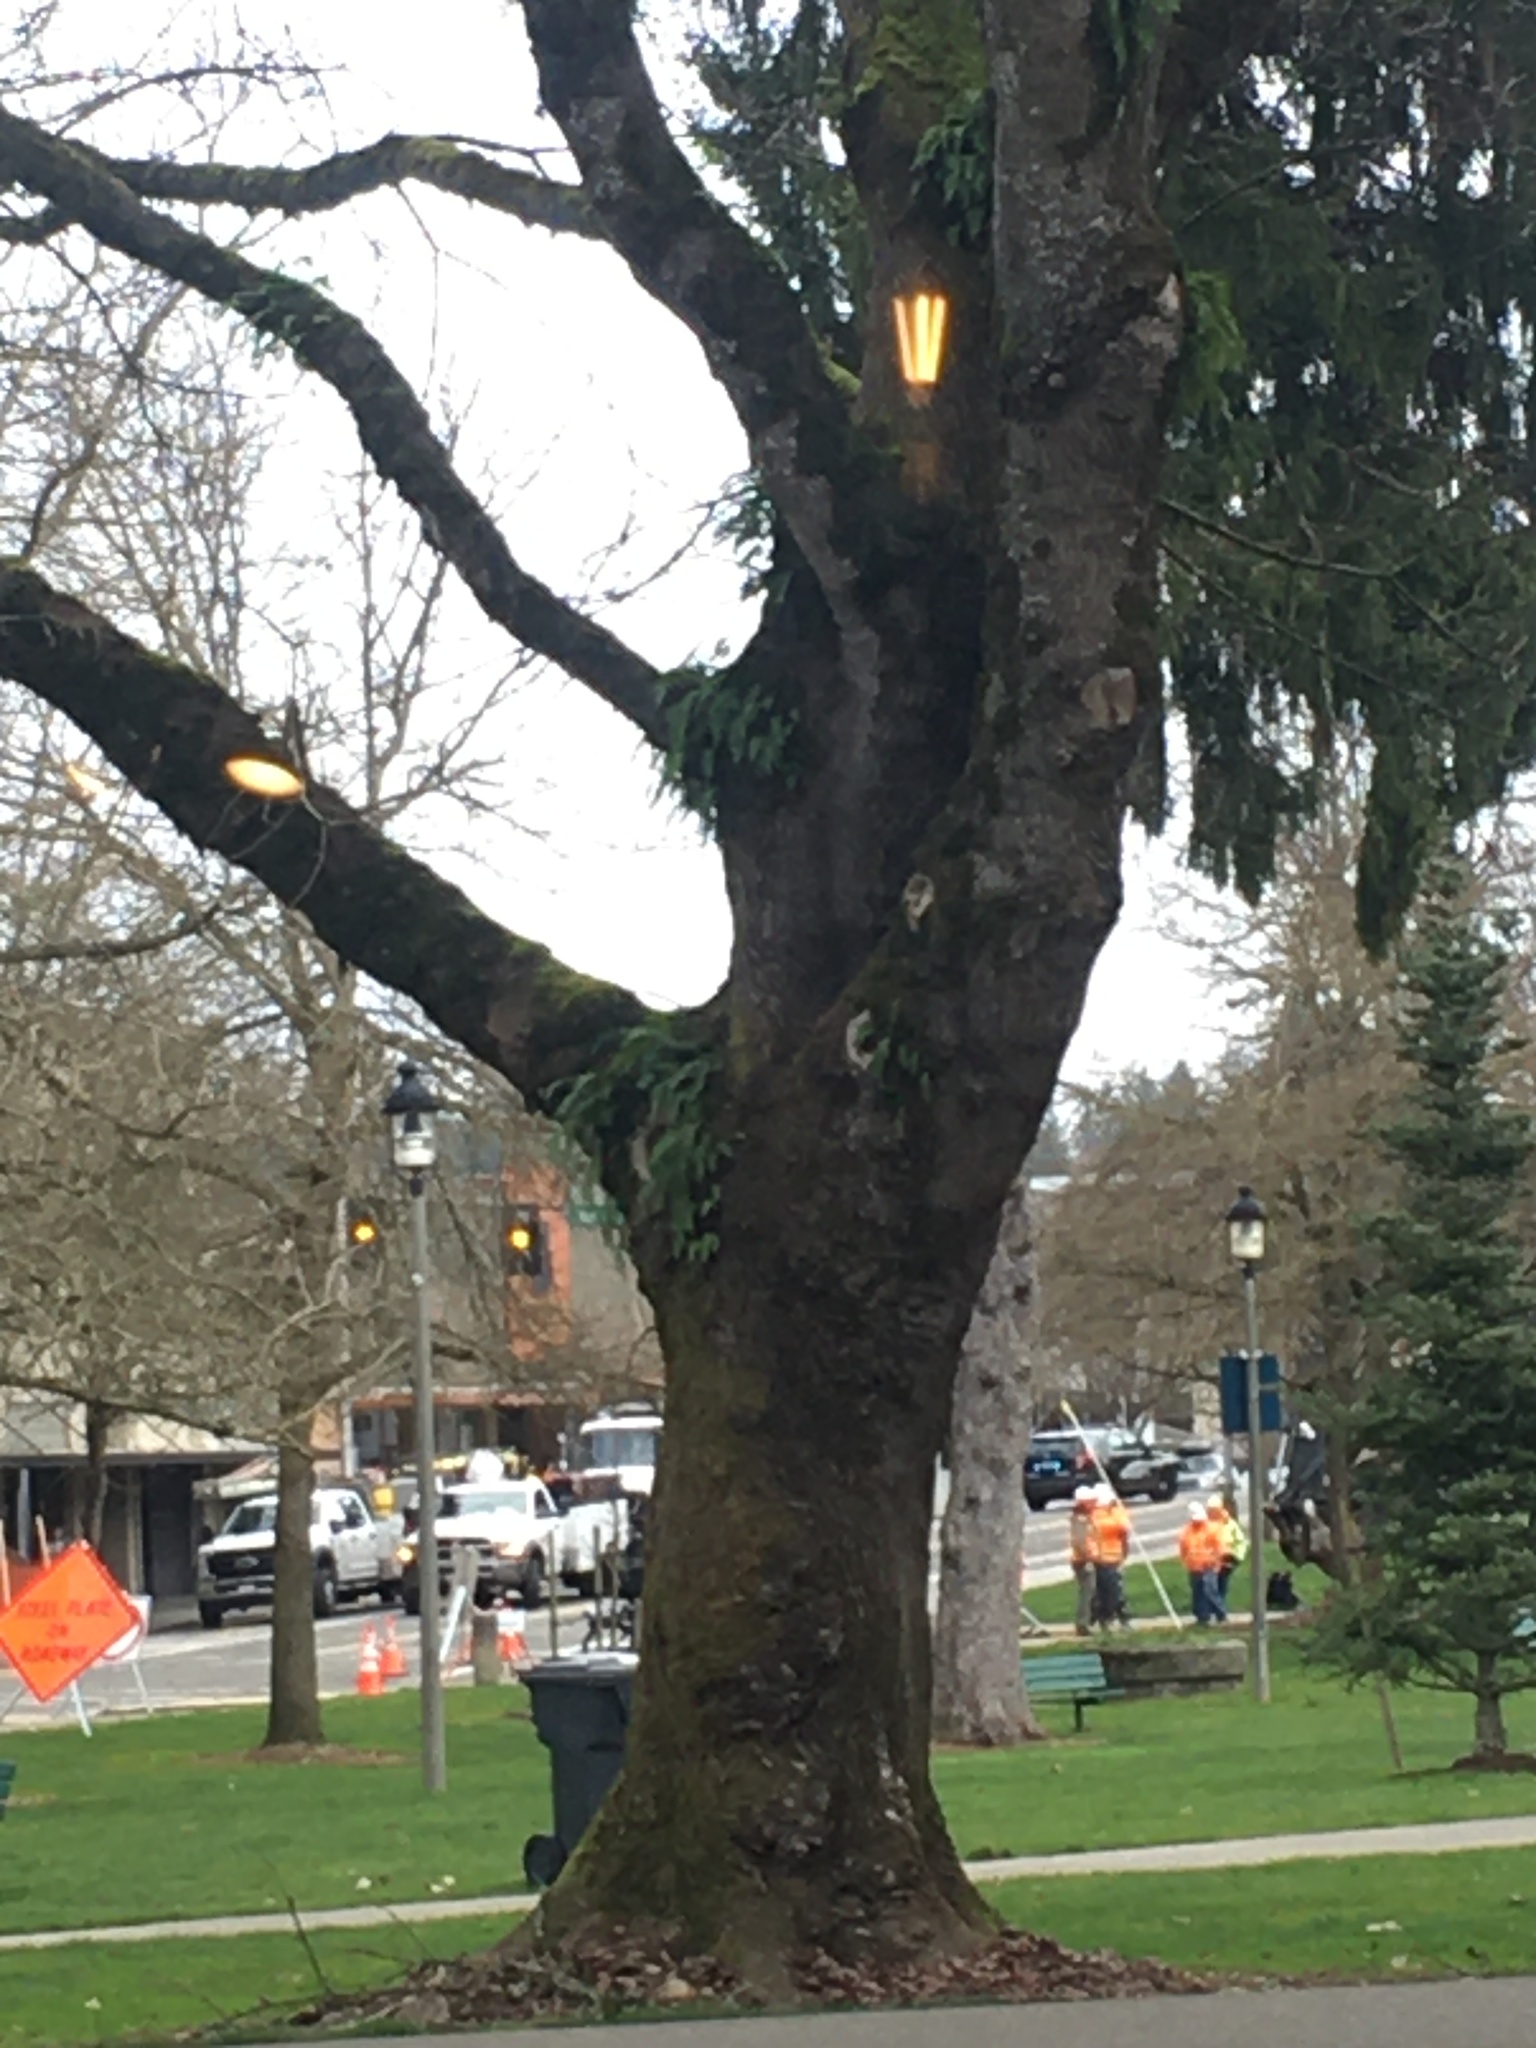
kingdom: Plantae
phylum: Tracheophyta
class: Polypodiopsida
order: Polypodiales
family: Polypodiaceae
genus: Polypodium
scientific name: Polypodium glycyrrhiza
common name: Licorice fern
